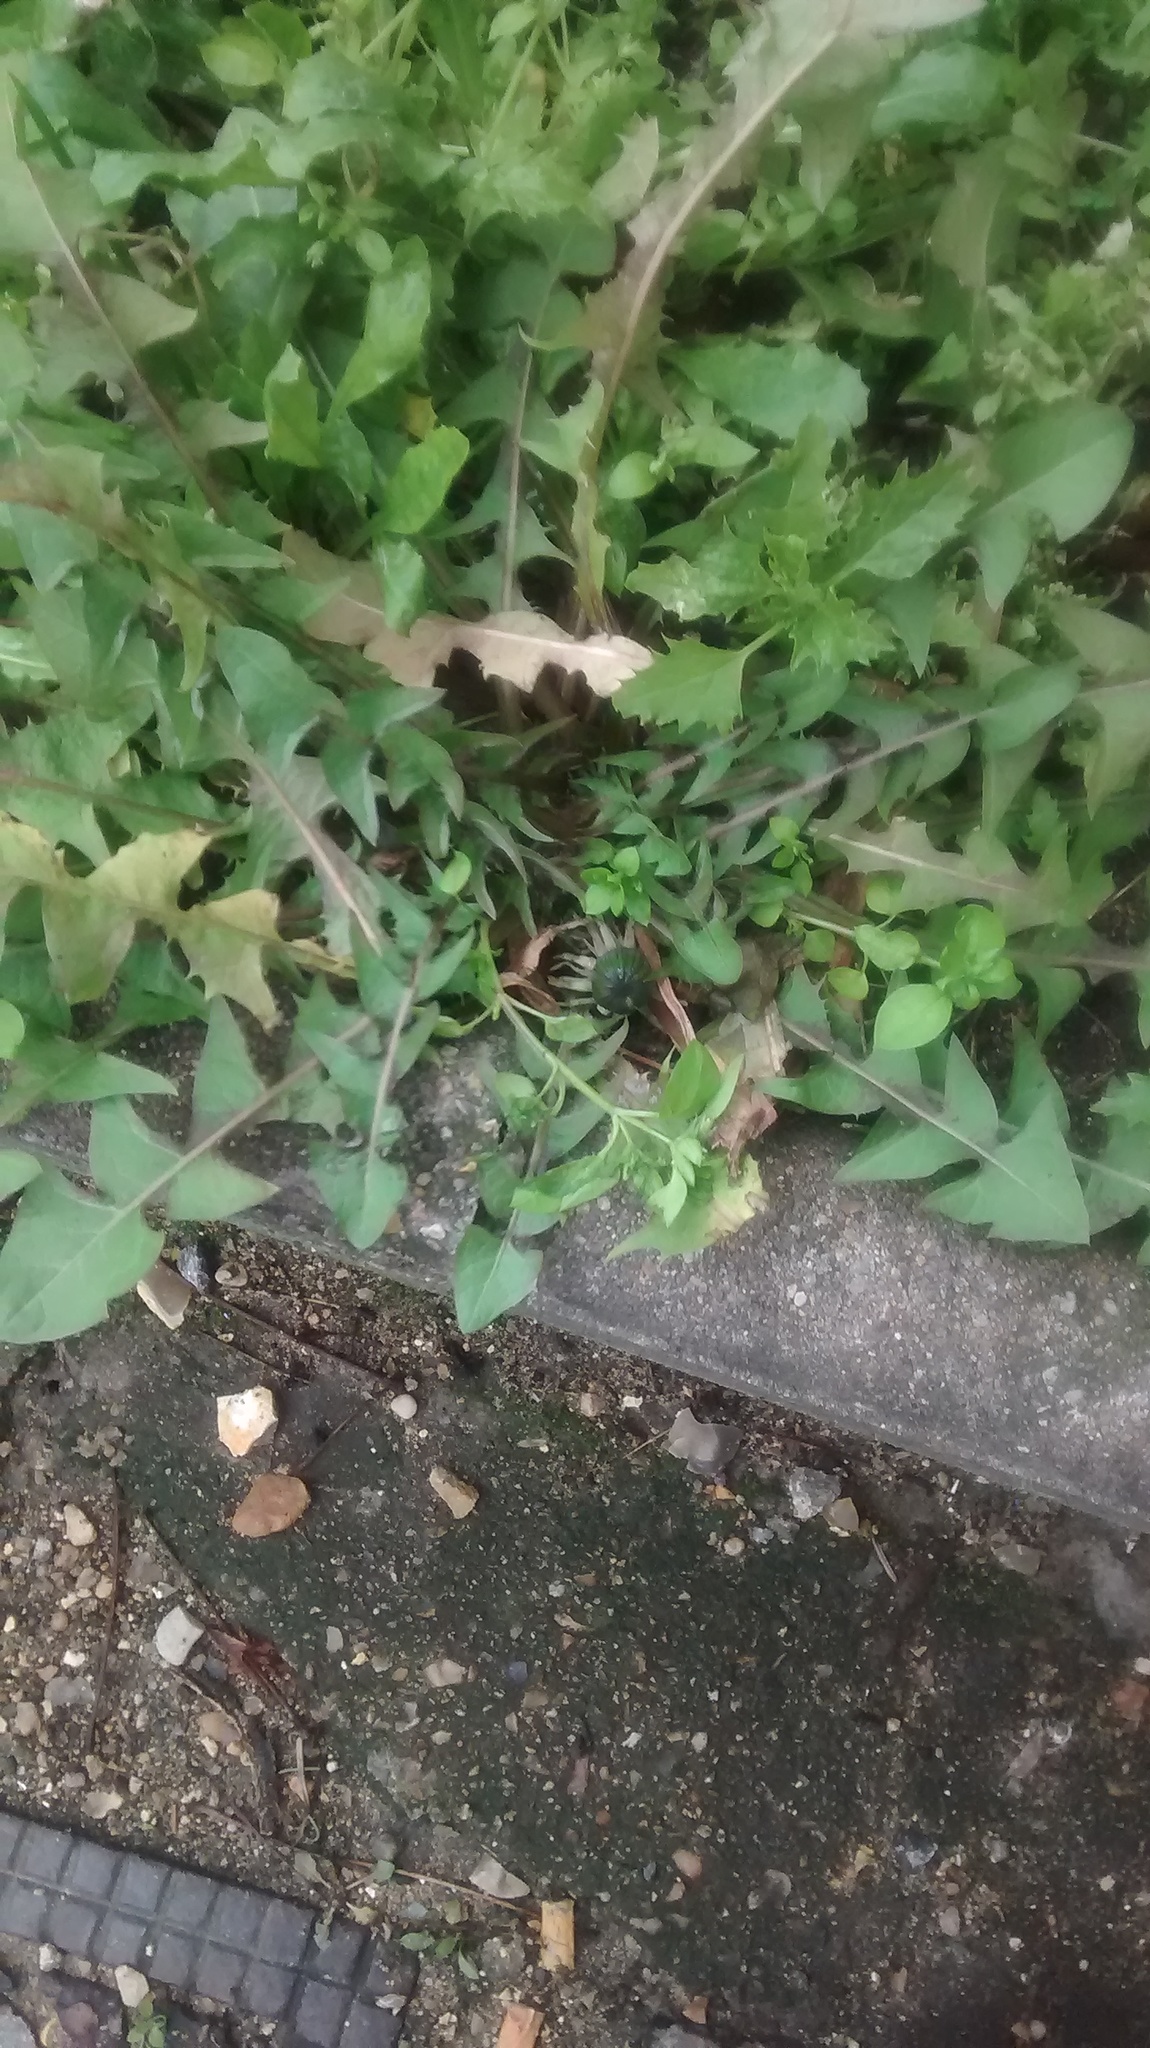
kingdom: Plantae
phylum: Tracheophyta
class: Magnoliopsida
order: Asterales
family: Asteraceae
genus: Taraxacum
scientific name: Taraxacum officinale
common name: Common dandelion
